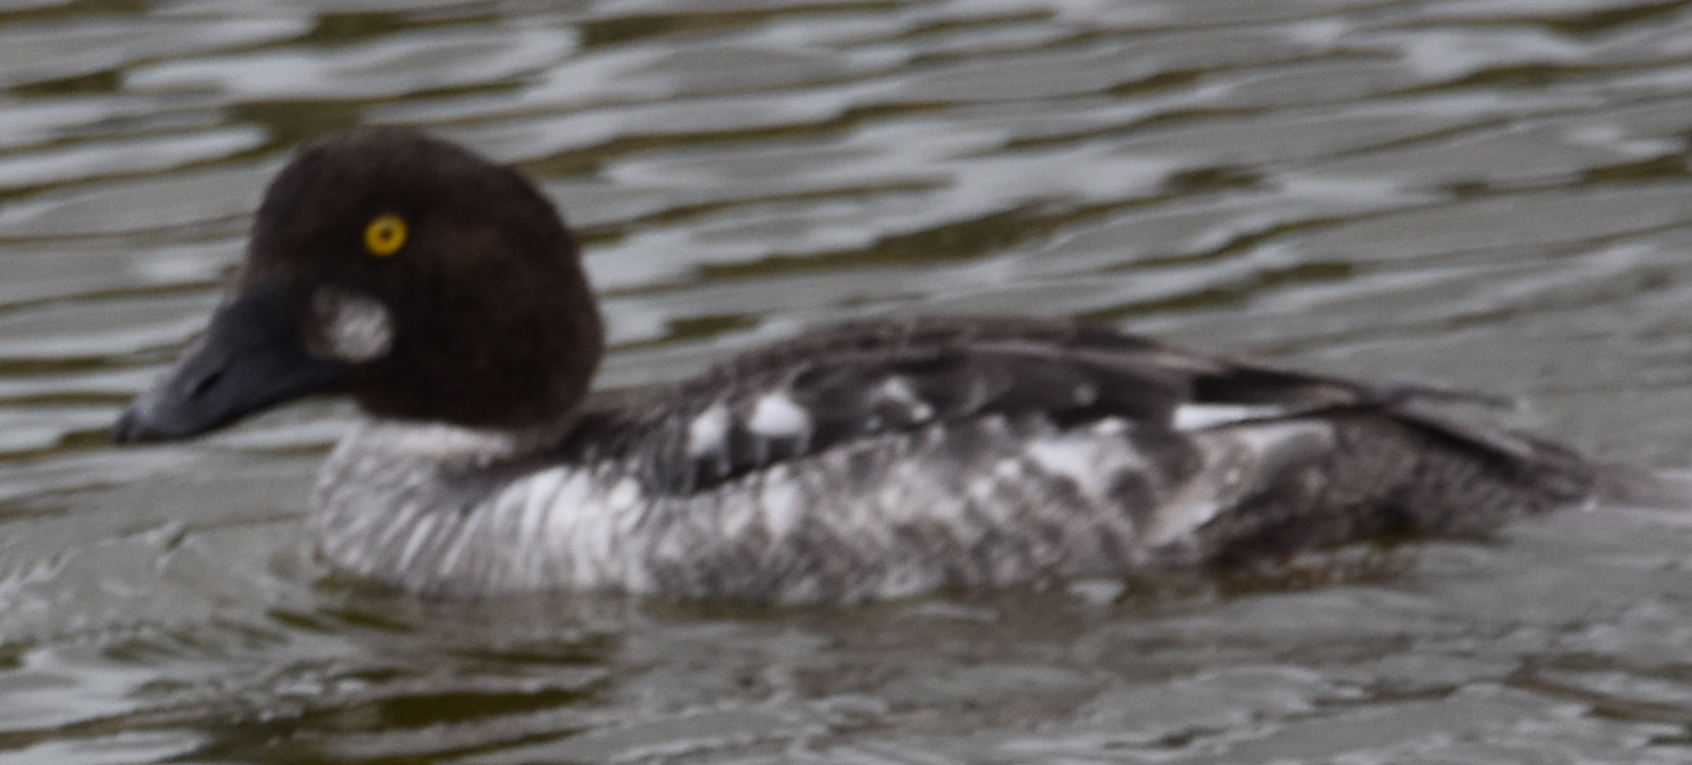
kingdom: Animalia
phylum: Chordata
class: Aves
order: Anseriformes
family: Anatidae
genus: Bucephala
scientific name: Bucephala clangula
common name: Common goldeneye
